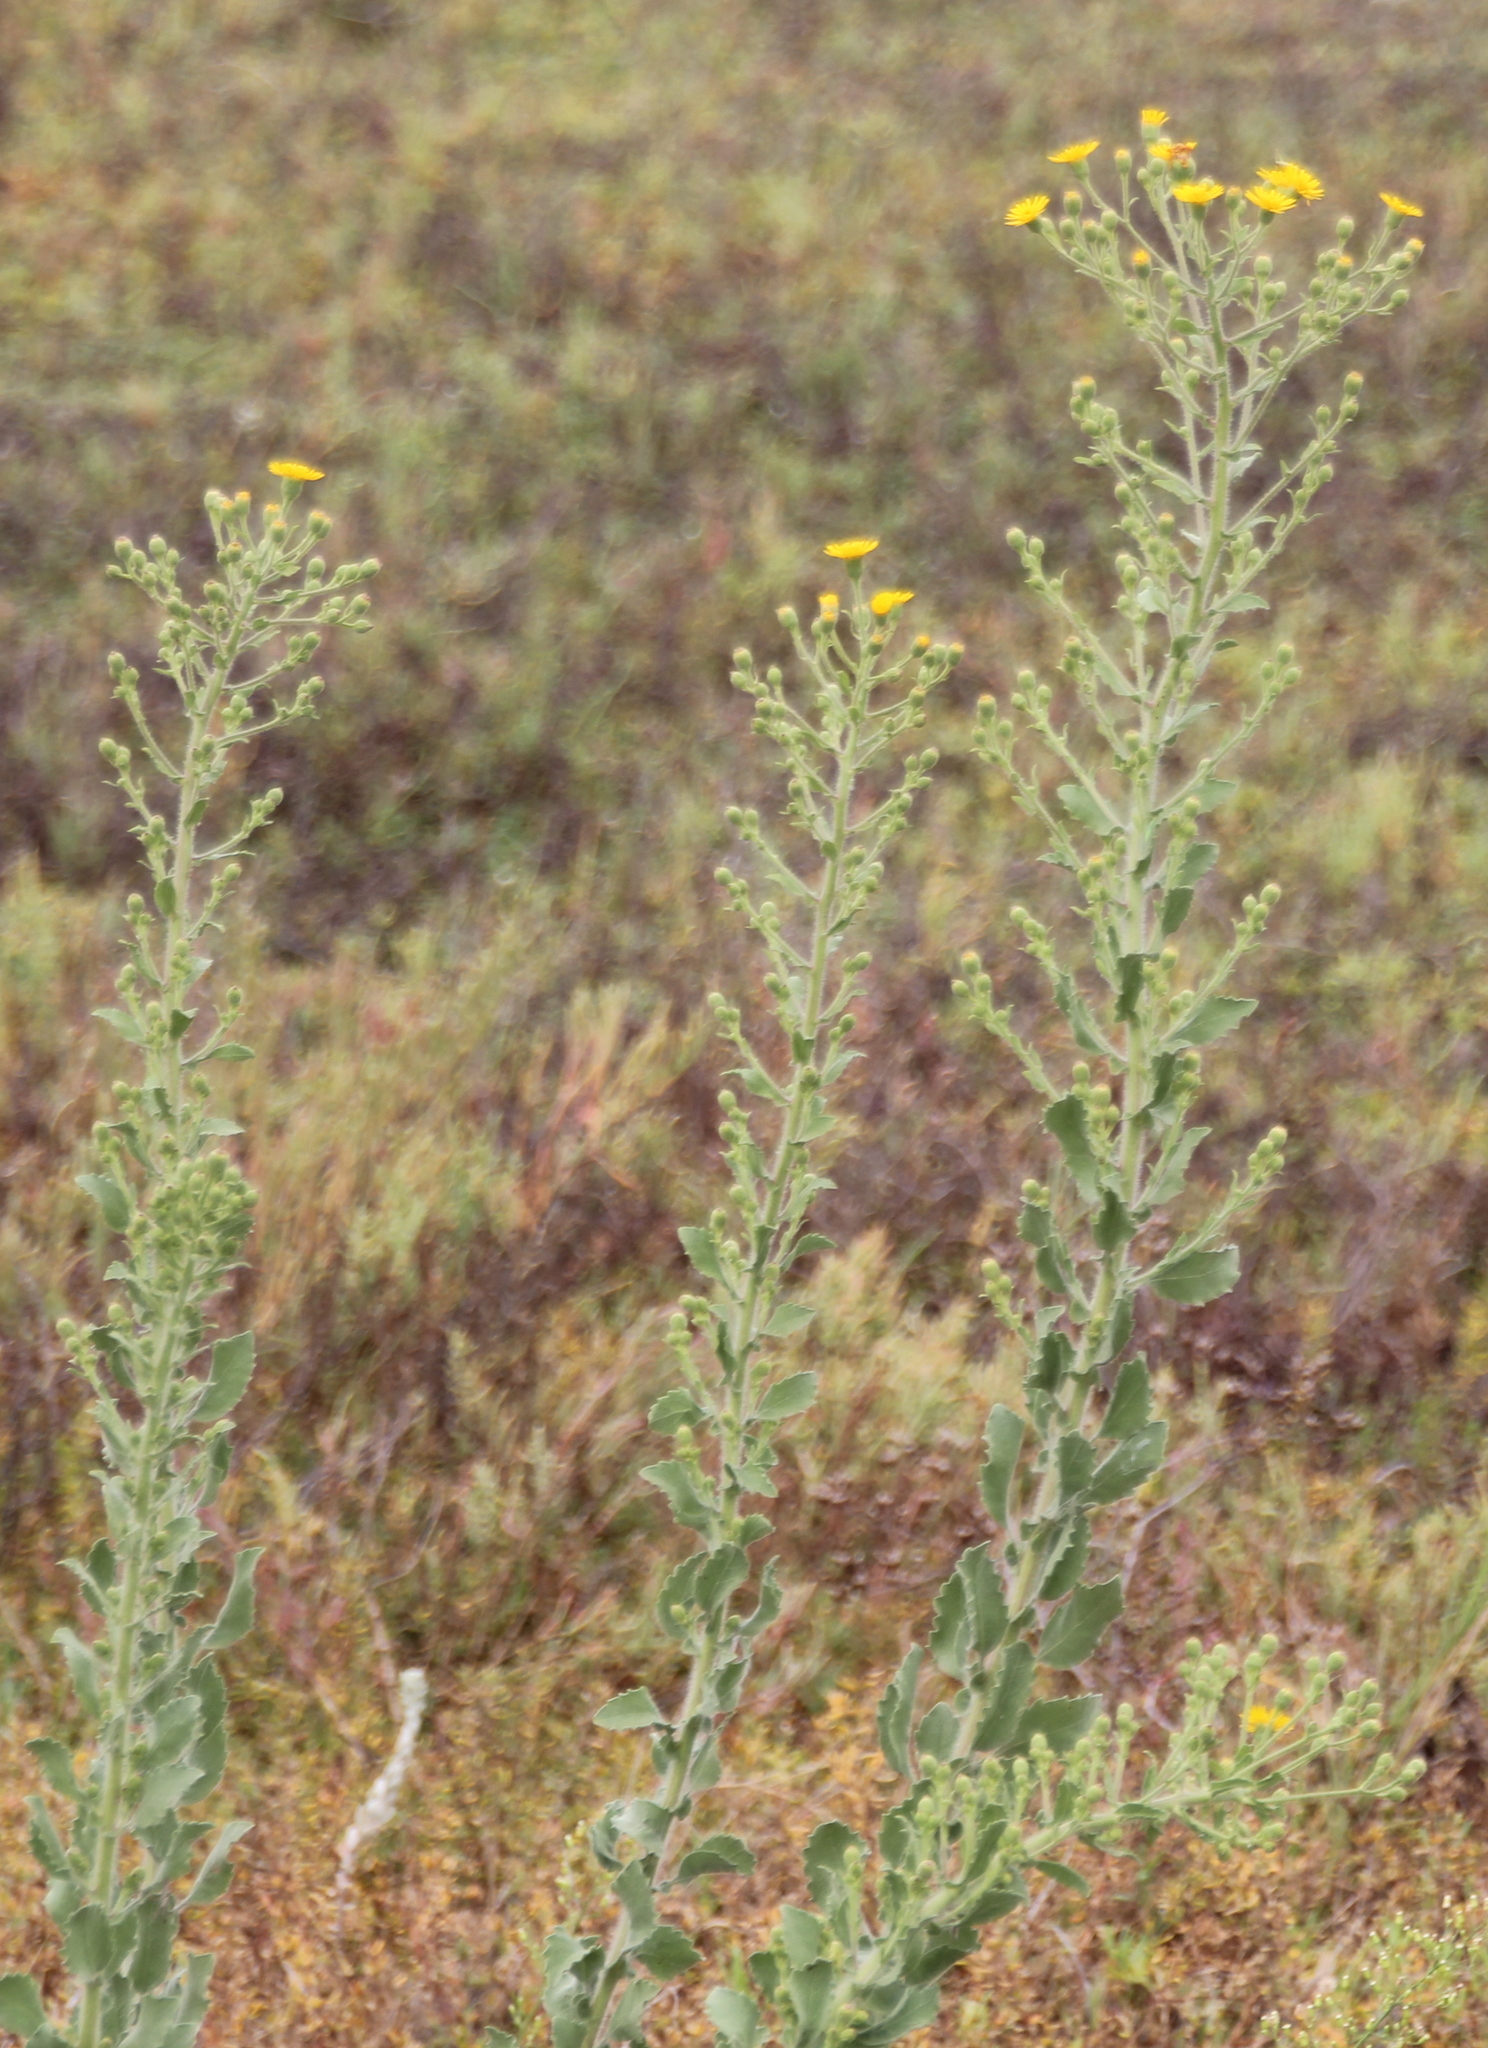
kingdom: Plantae
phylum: Tracheophyta
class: Magnoliopsida
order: Asterales
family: Asteraceae
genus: Heterotheca
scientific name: Heterotheca grandiflora
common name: Telegraphweed
